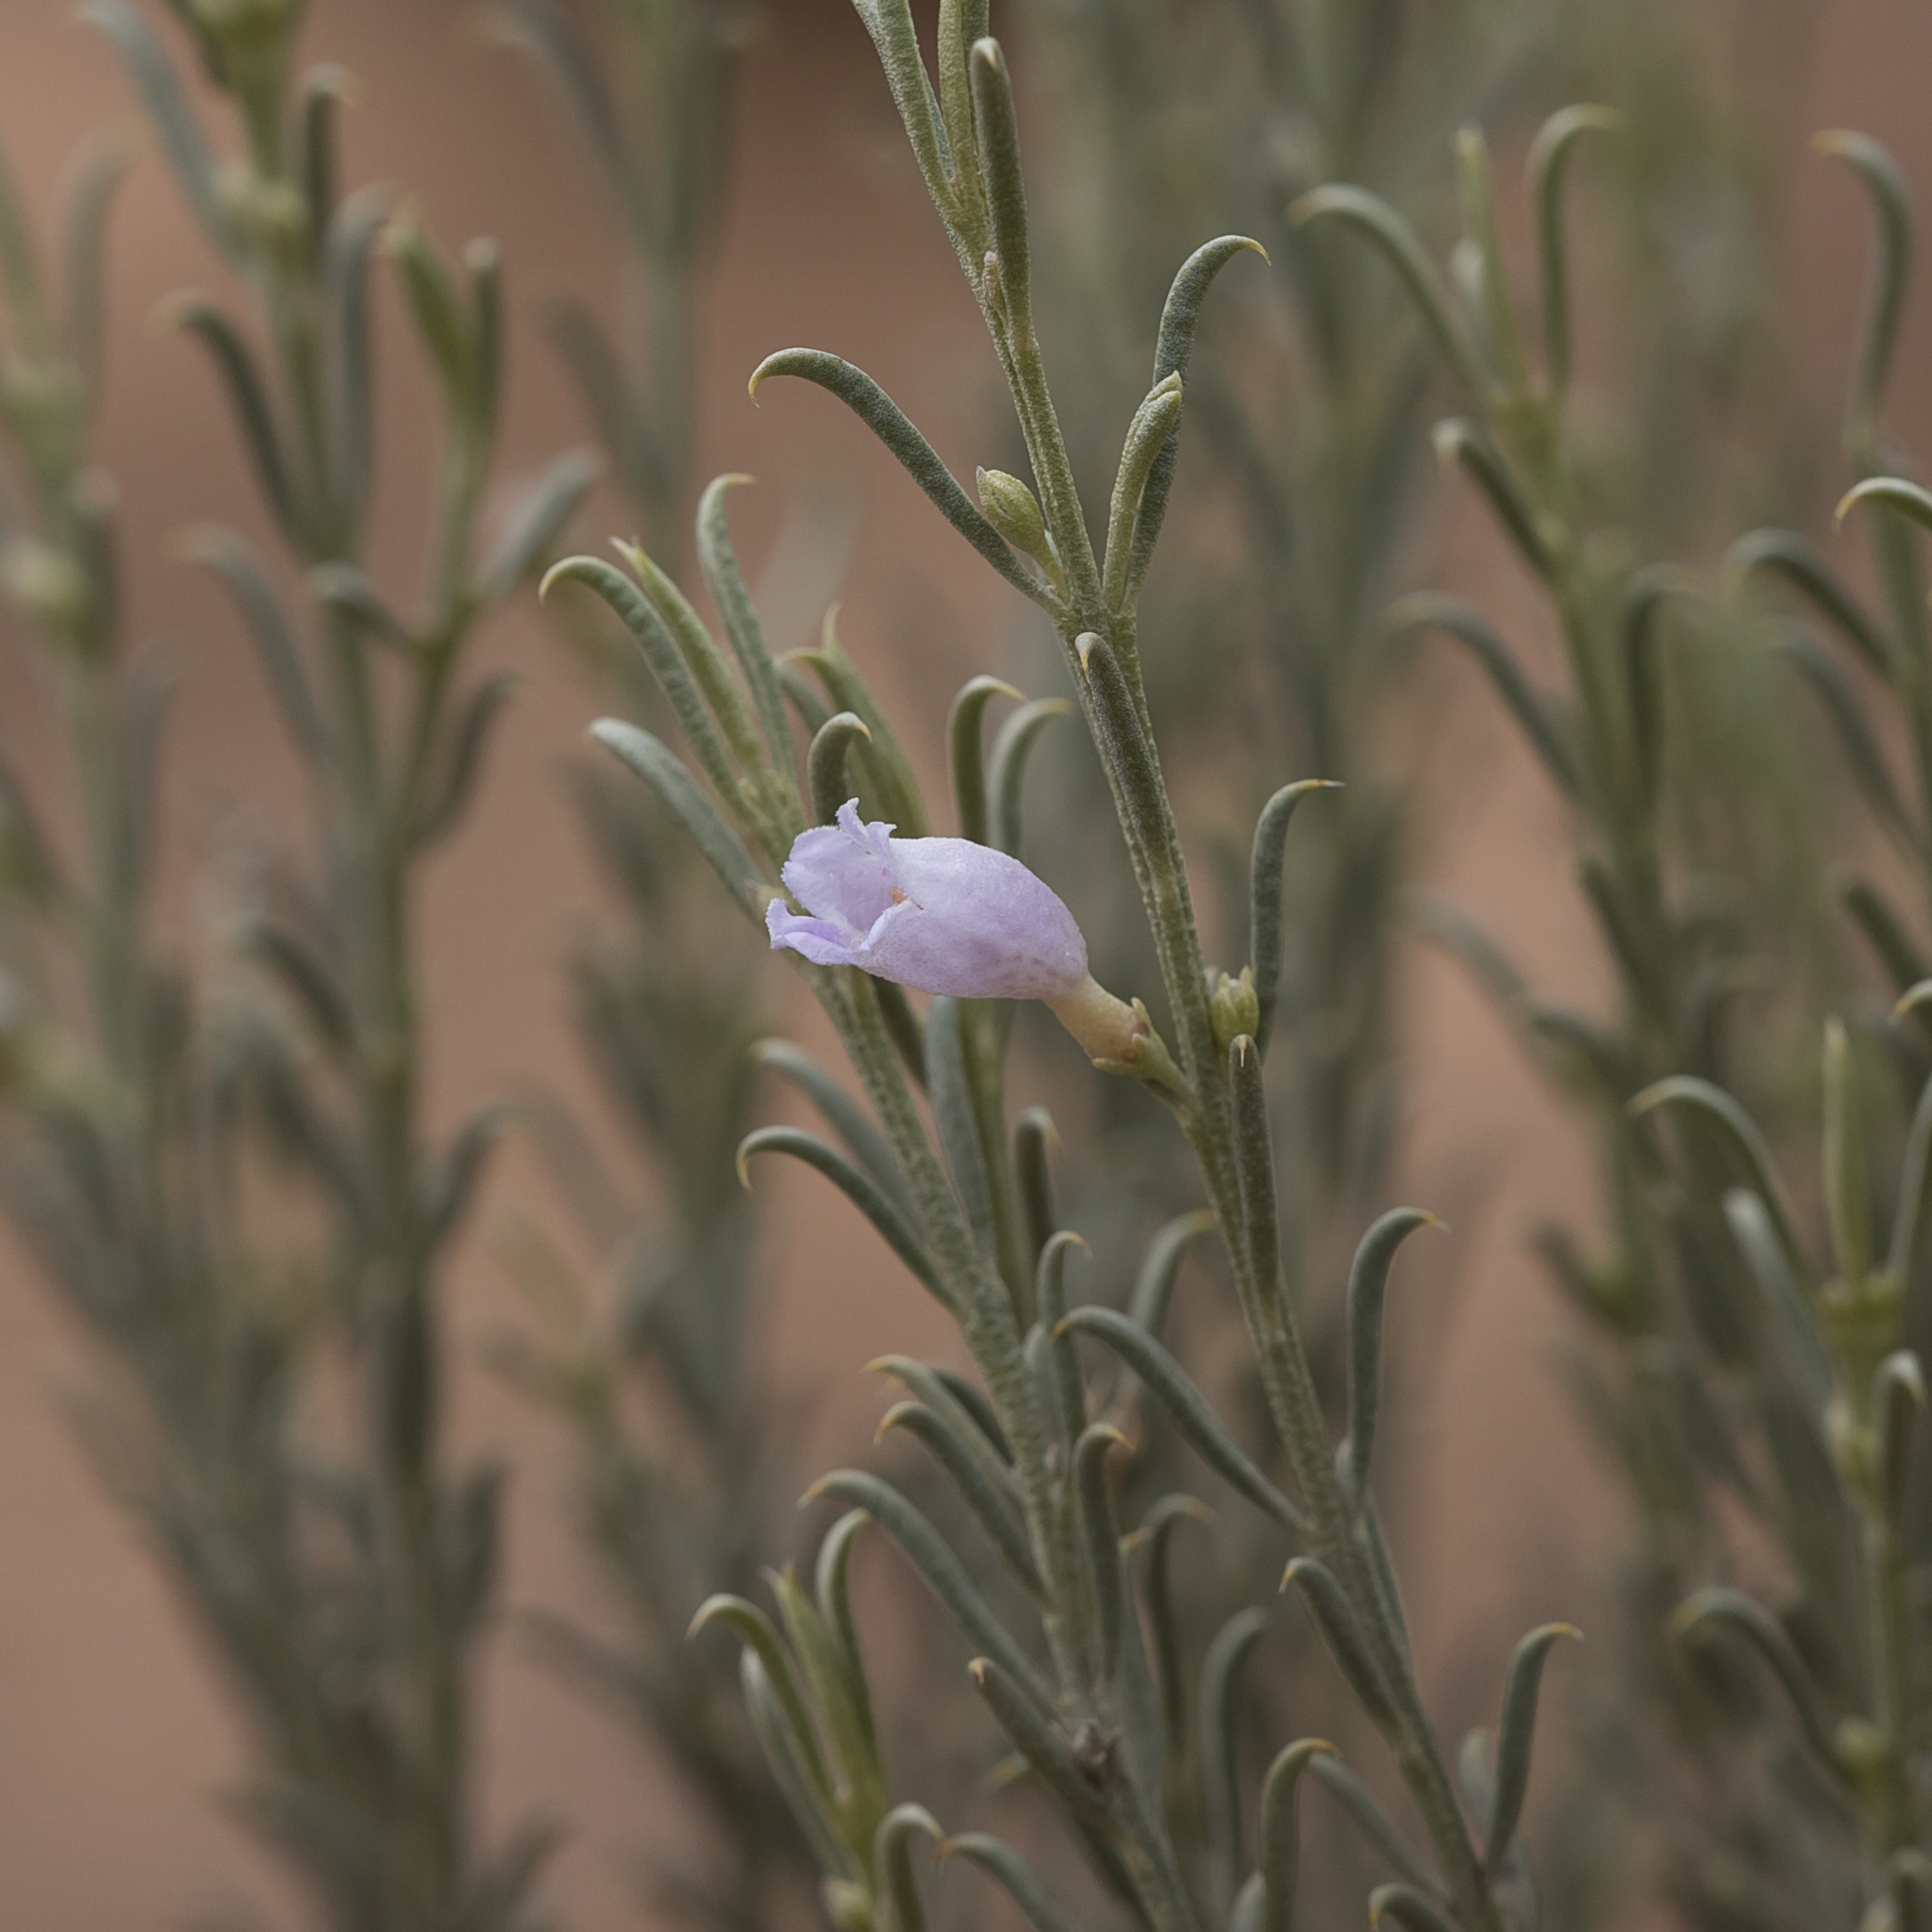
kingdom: Plantae
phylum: Tracheophyta
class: Magnoliopsida
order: Lamiales
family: Scrophulariaceae
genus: Eremophila
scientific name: Eremophila scoparia
